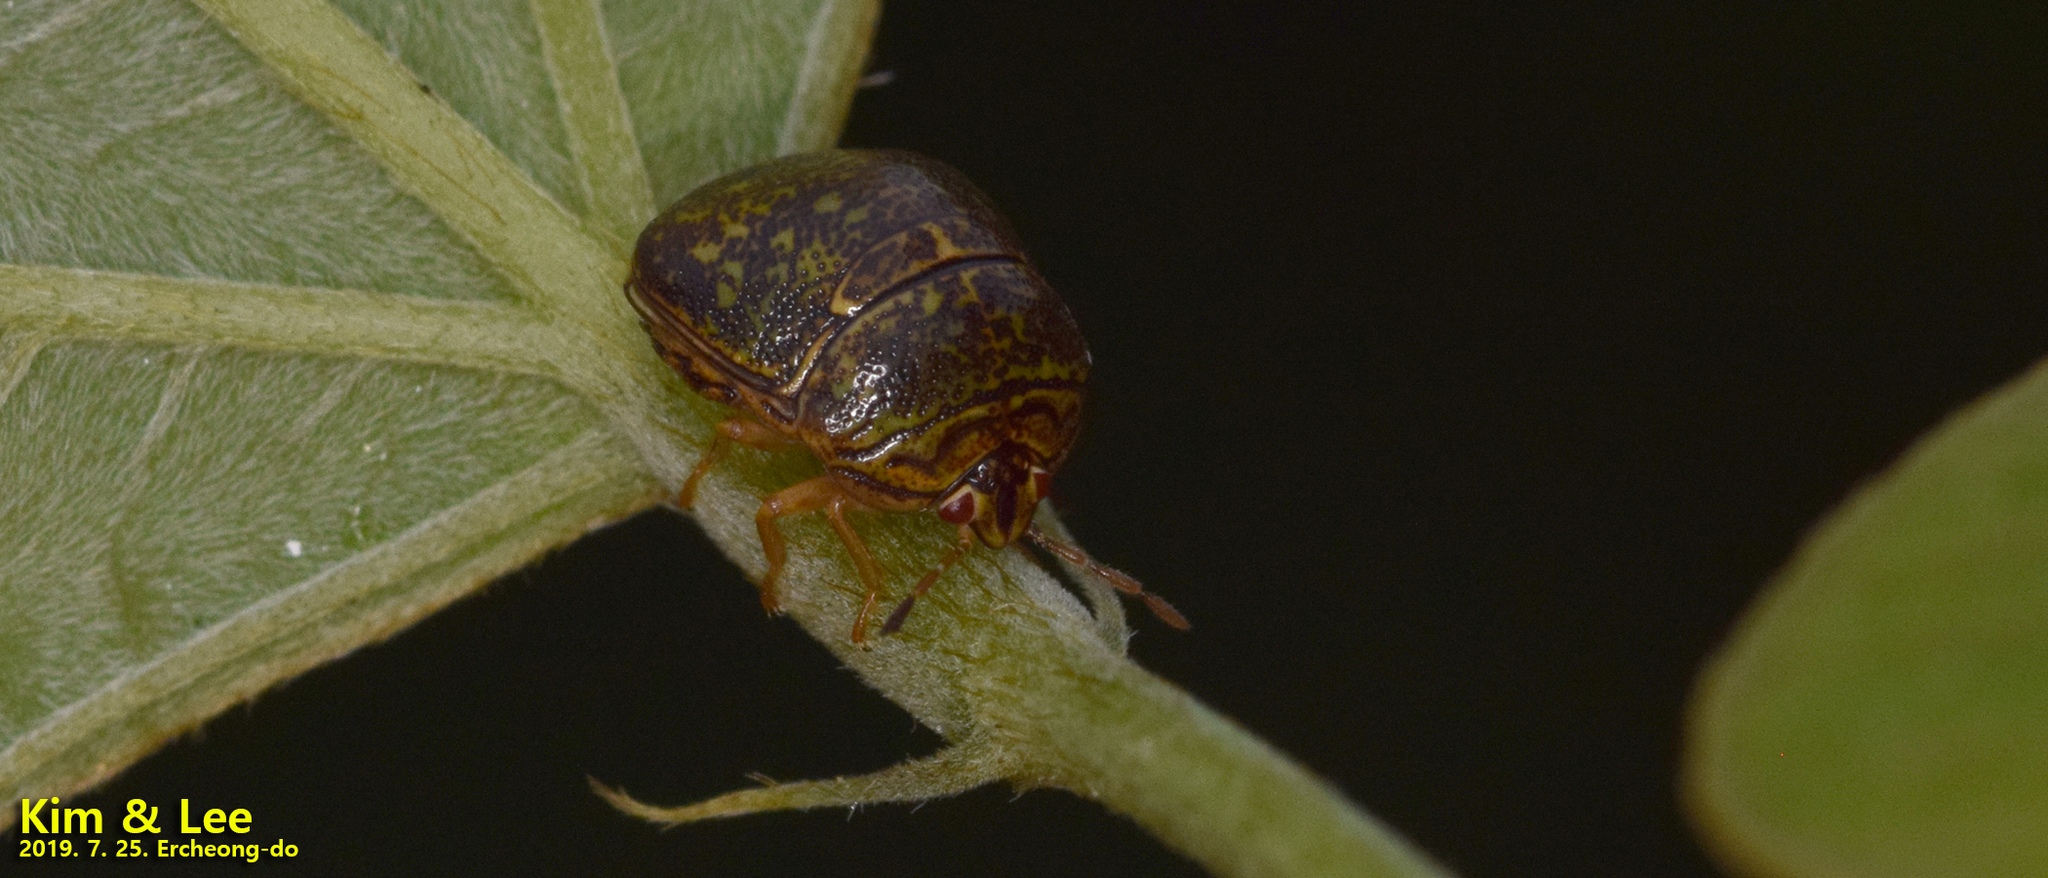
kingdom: Animalia
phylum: Arthropoda
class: Insecta
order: Hemiptera
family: Plataspidae
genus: Megacopta
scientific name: Megacopta cribraria
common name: Bean plataspid
